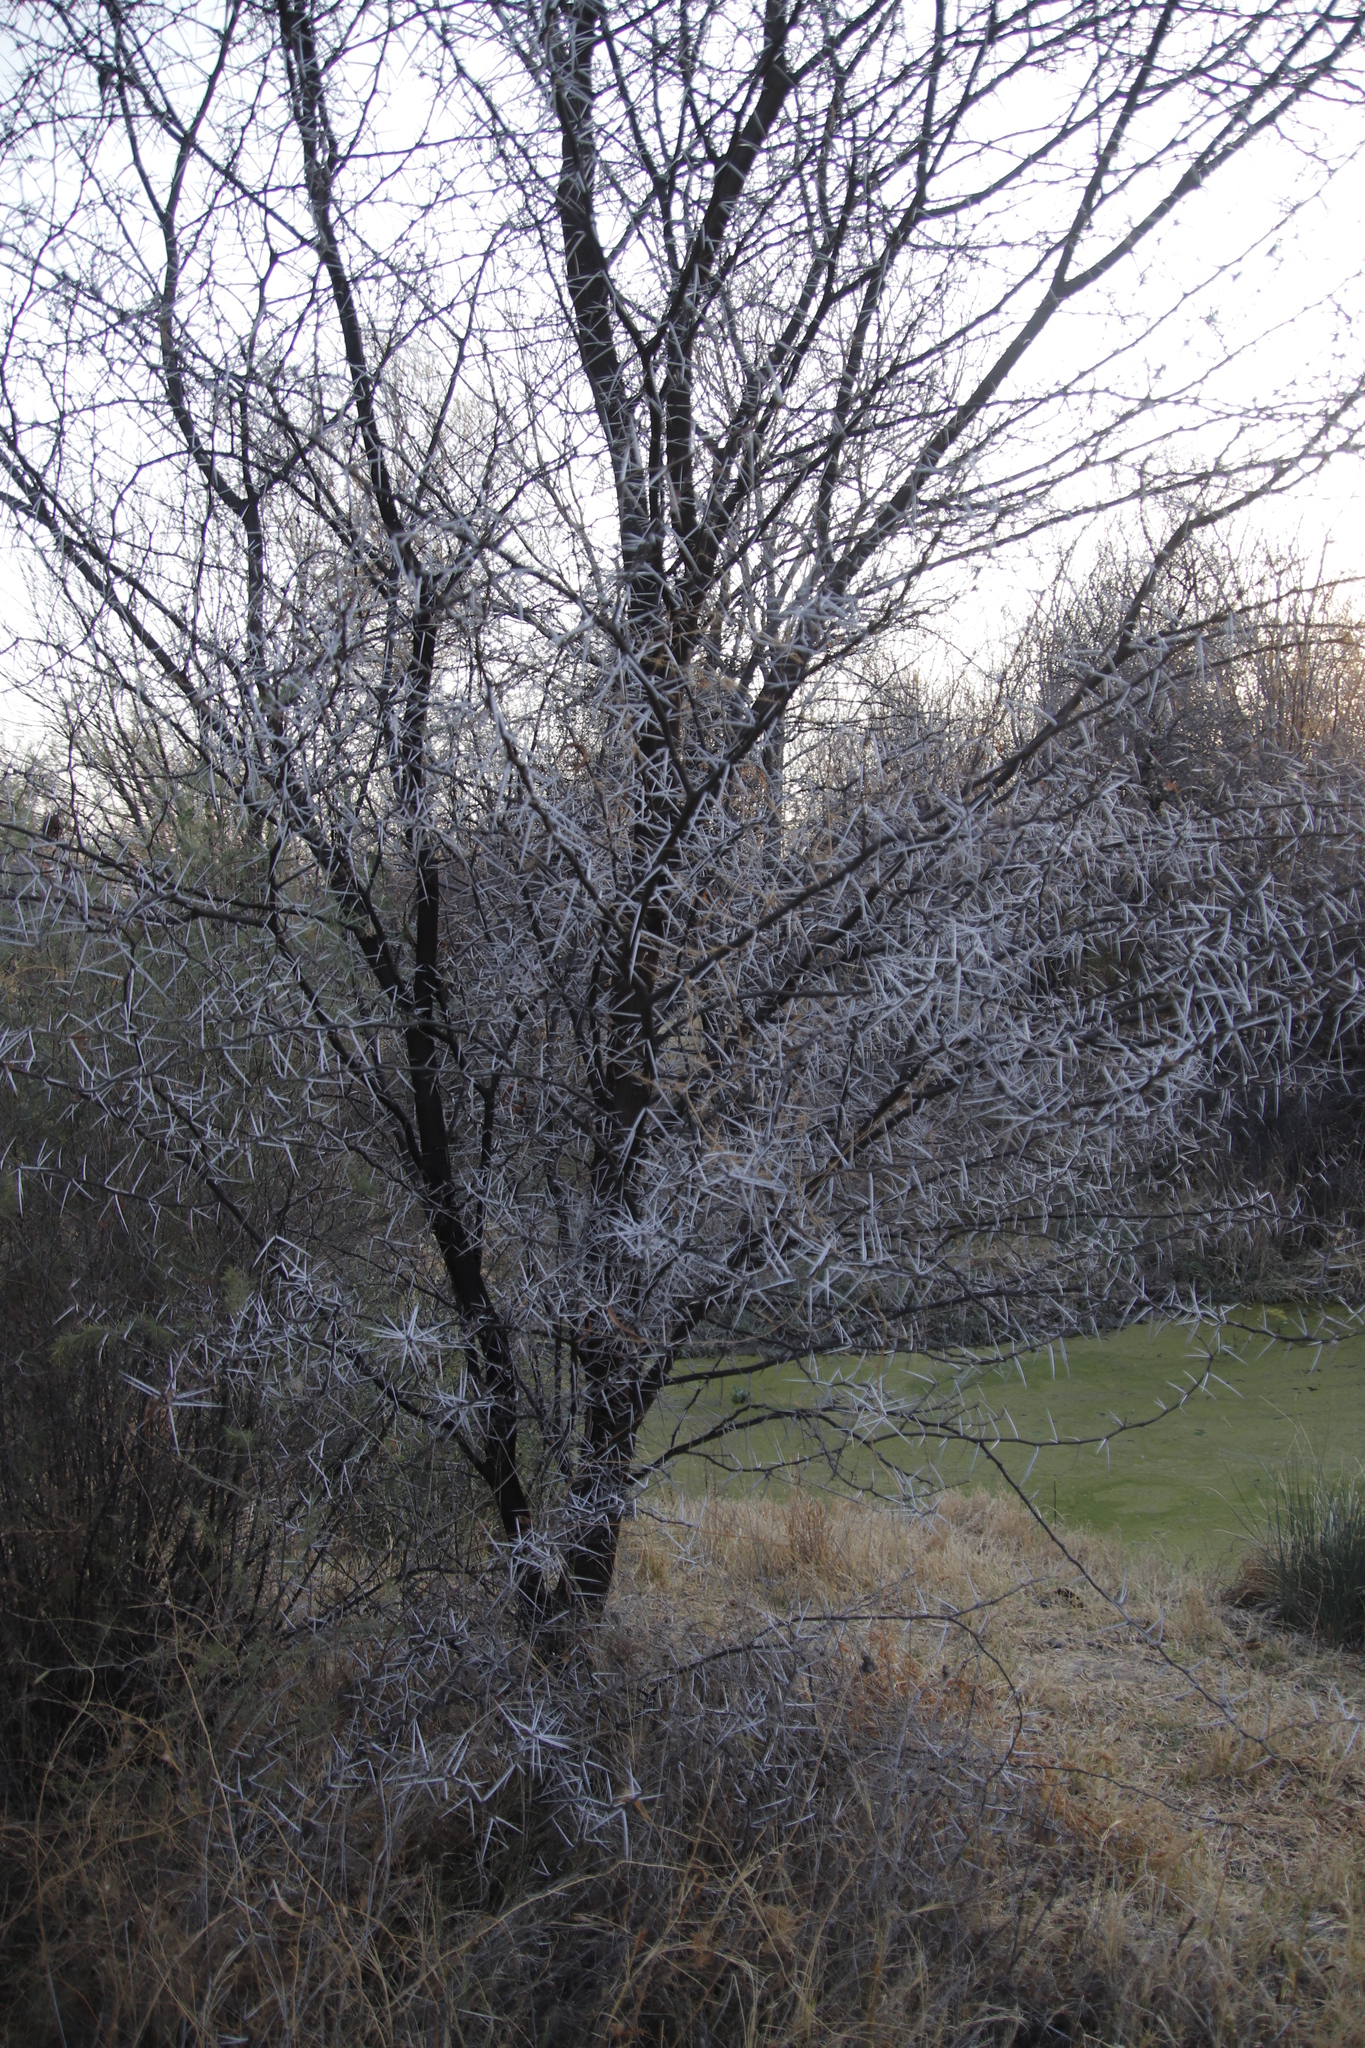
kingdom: Plantae
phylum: Tracheophyta
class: Magnoliopsida
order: Fabales
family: Fabaceae
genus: Vachellia
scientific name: Vachellia karroo
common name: Sweet thorn
